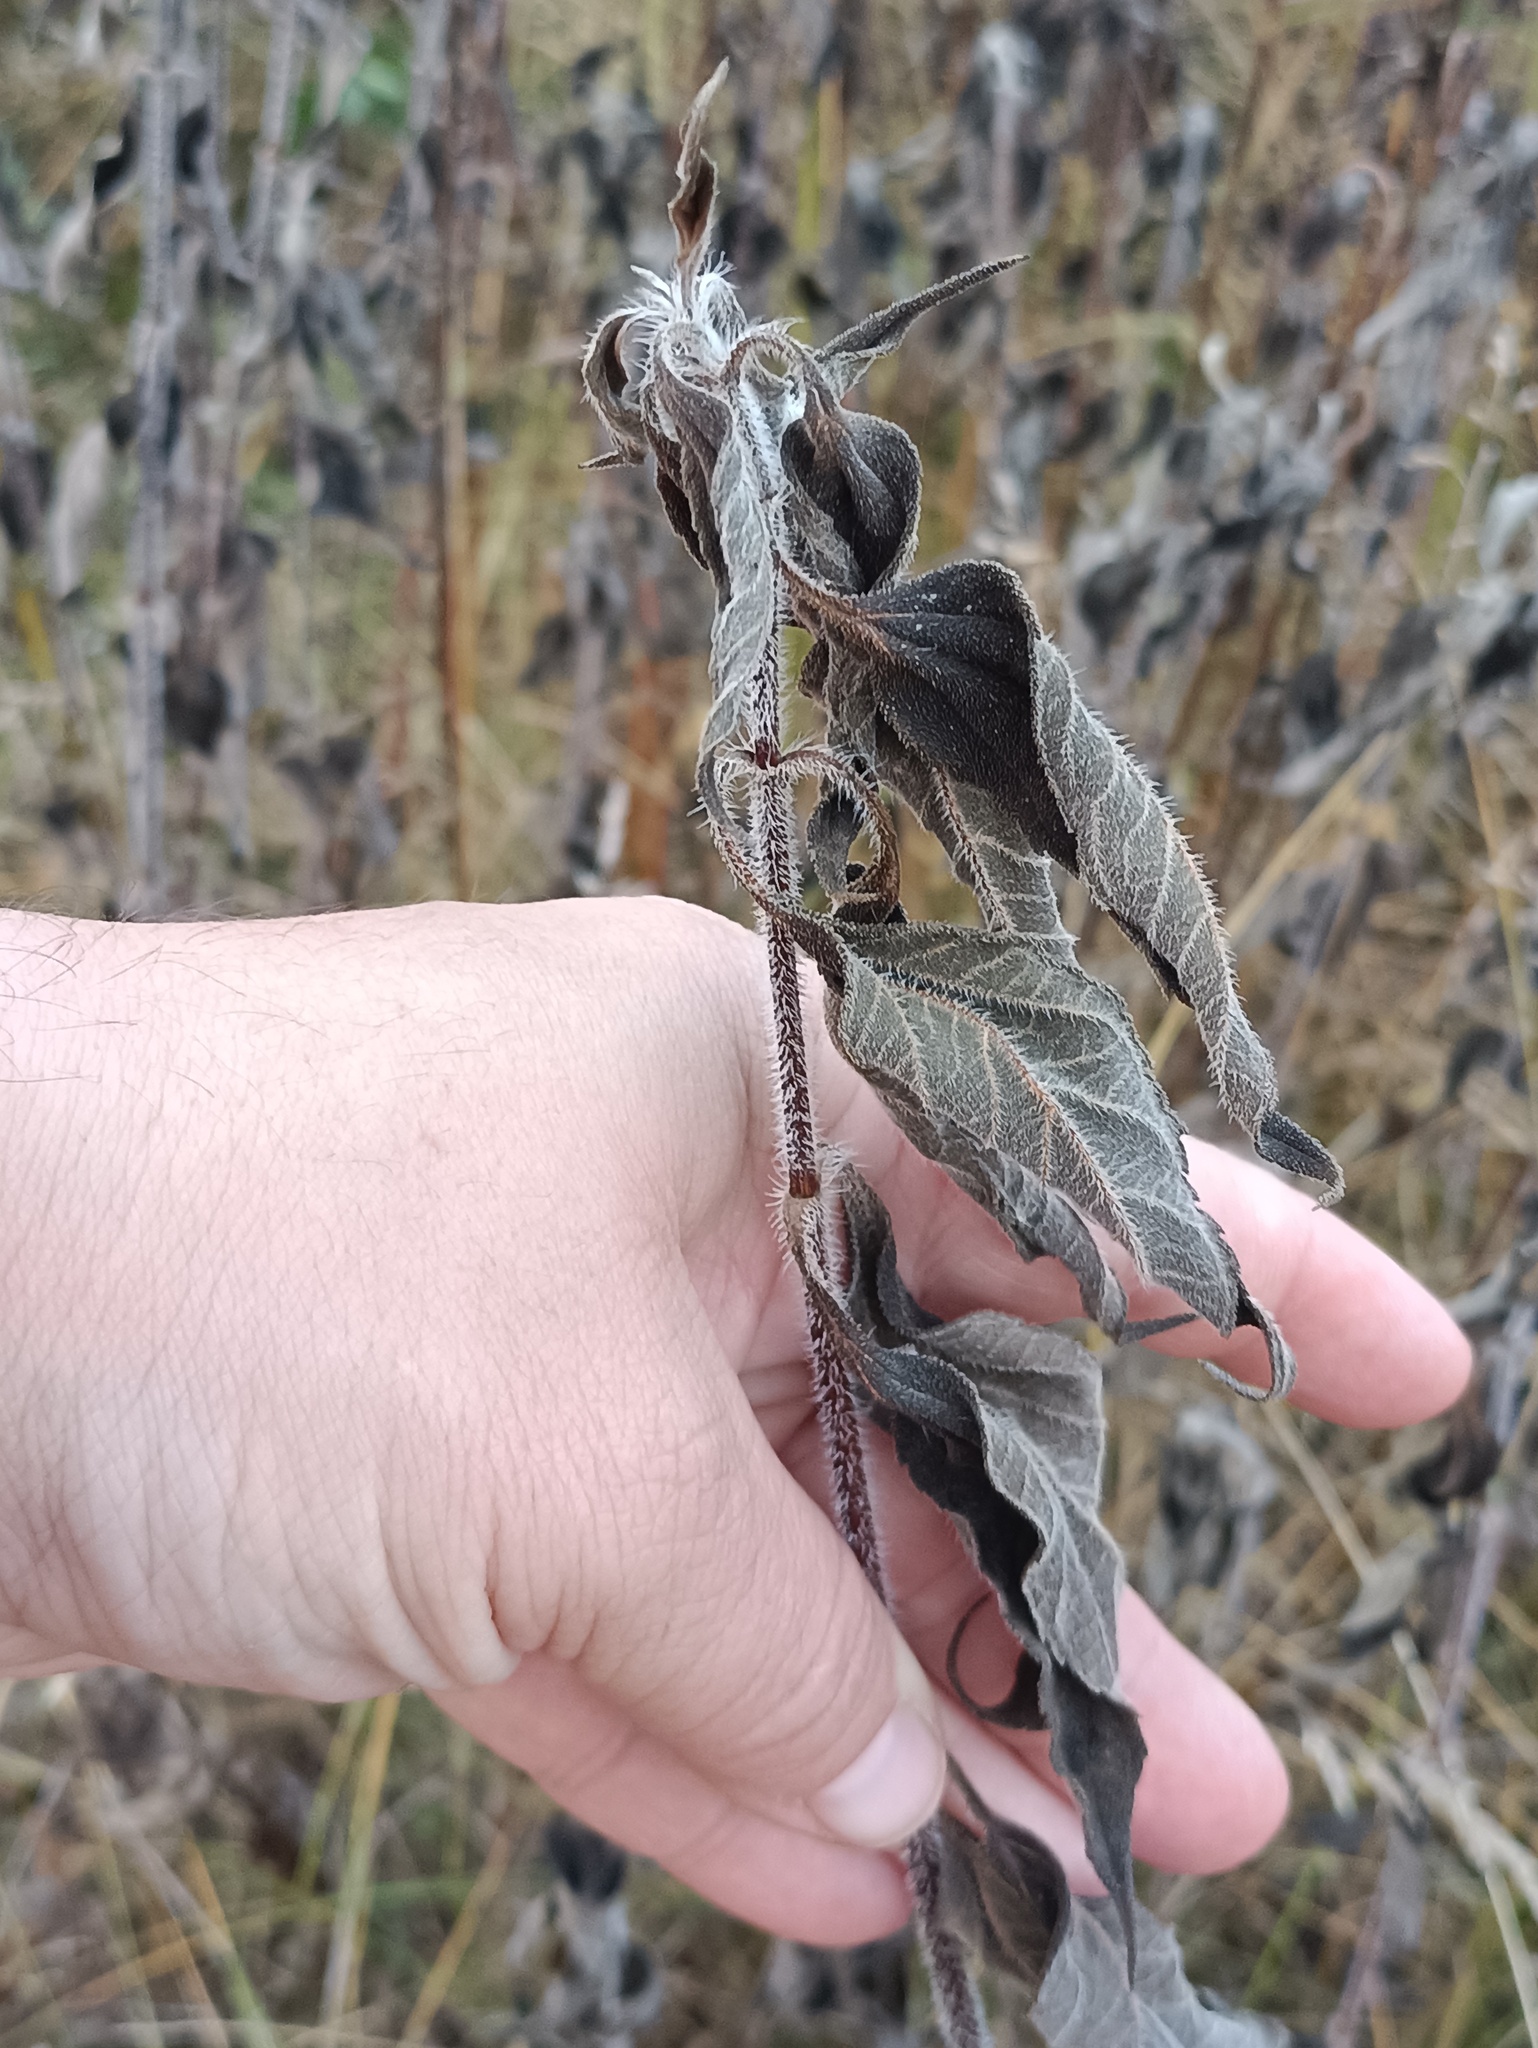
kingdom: Plantae
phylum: Tracheophyta
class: Magnoliopsida
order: Asterales
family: Asteraceae
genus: Helianthus
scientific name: Helianthus tuberosus
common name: Jerusalem artichoke
